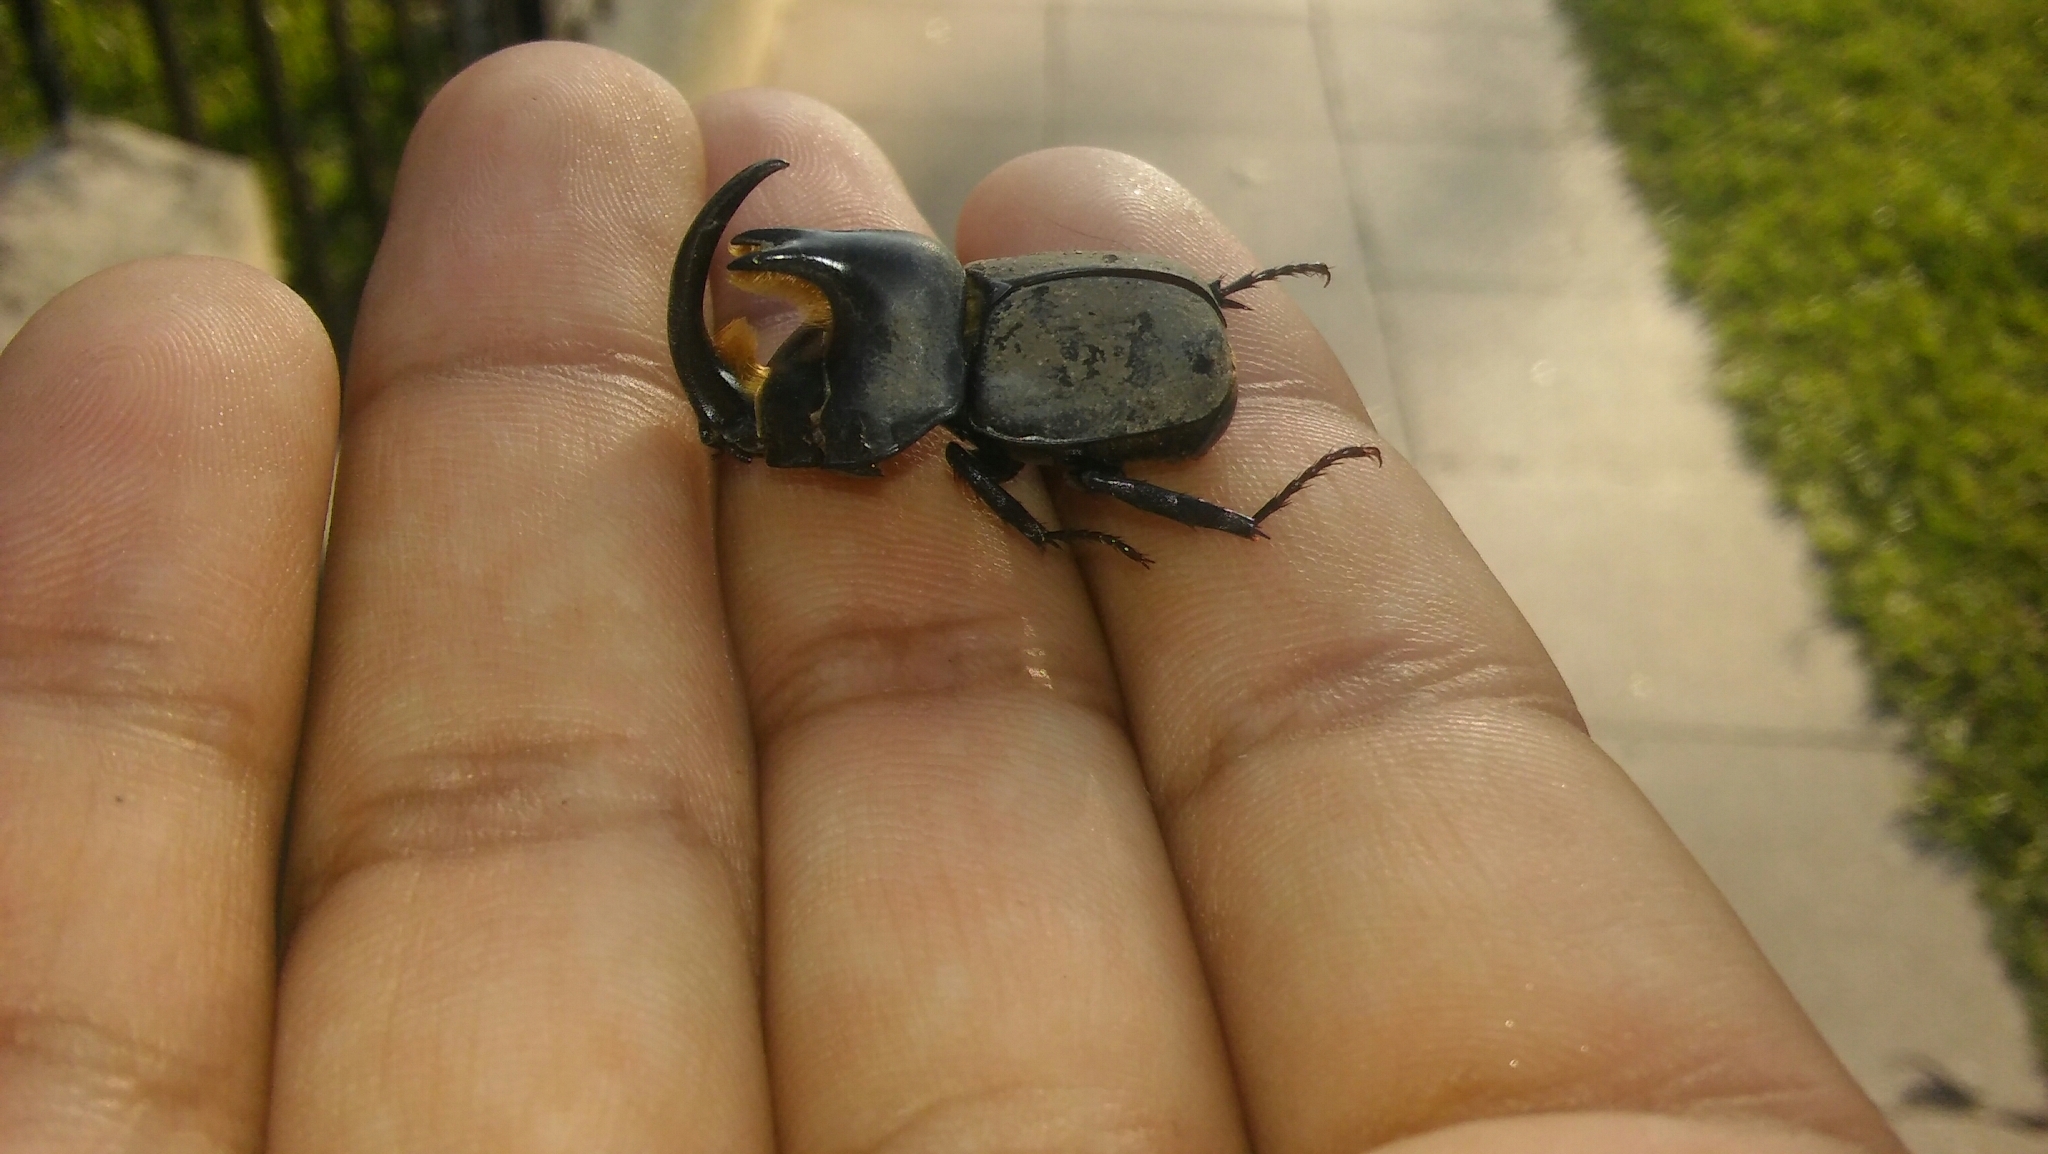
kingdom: Animalia
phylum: Arthropoda
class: Insecta
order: Coleoptera
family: Scarabaeidae
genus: Diloboderus
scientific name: Diloboderus abderus
